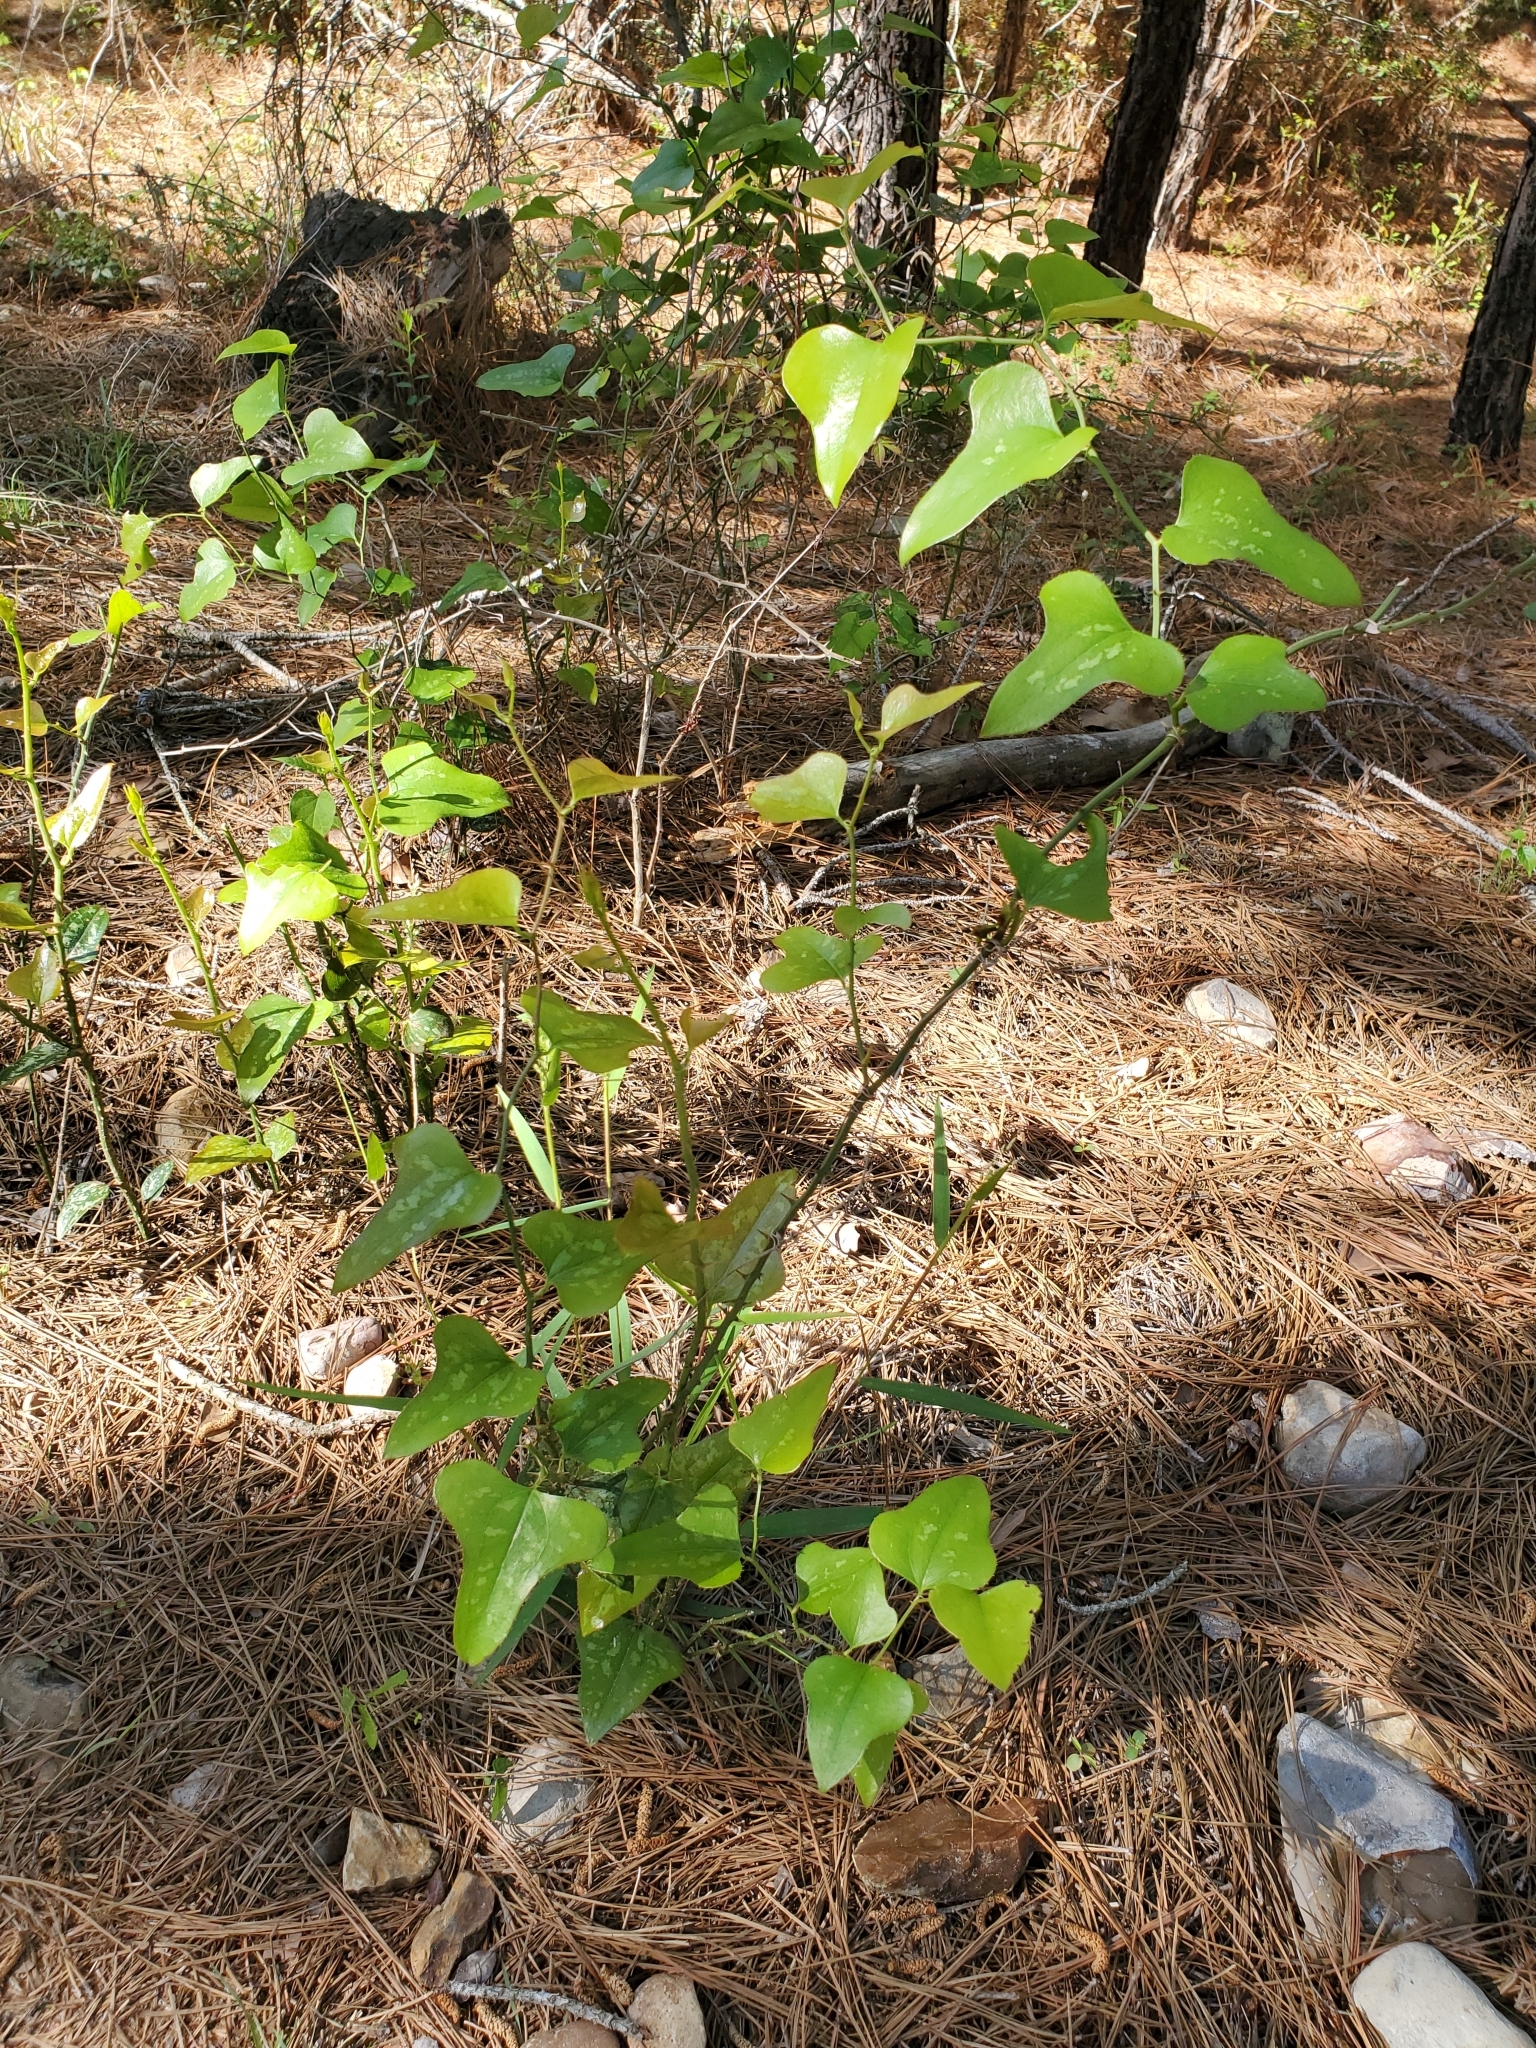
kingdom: Plantae
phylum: Tracheophyta
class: Liliopsida
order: Liliales
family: Smilacaceae
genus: Smilax
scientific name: Smilax bona-nox
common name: Catbrier
